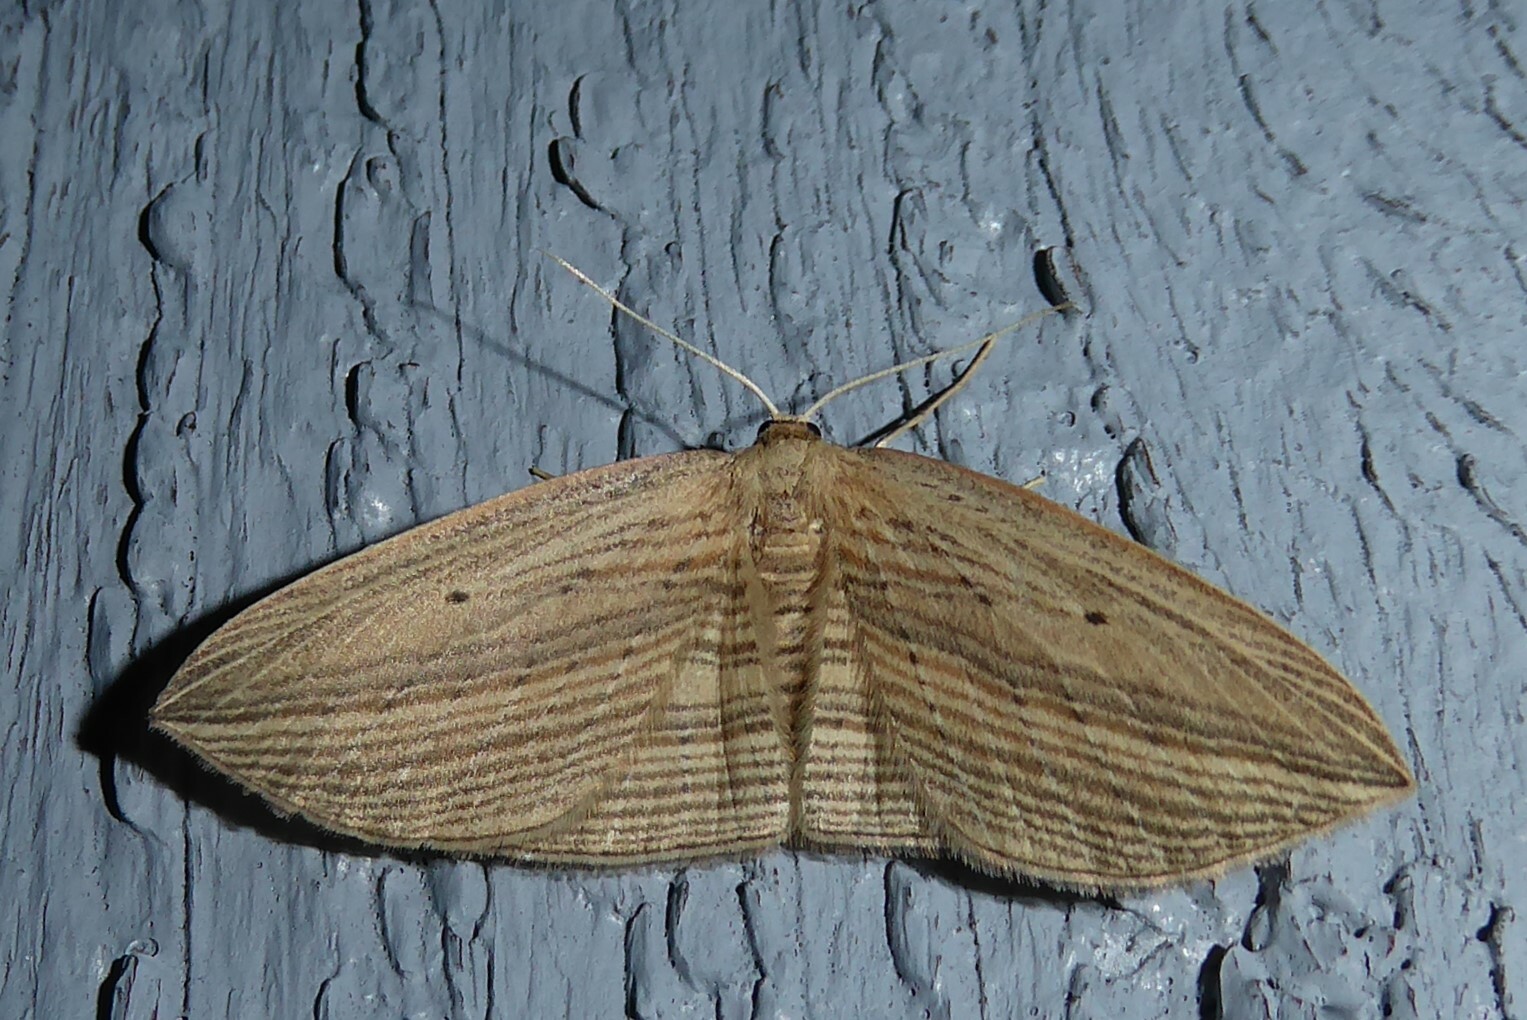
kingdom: Animalia
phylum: Arthropoda
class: Insecta
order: Lepidoptera
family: Geometridae
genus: Epiphryne
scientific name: Epiphryne verriculata
